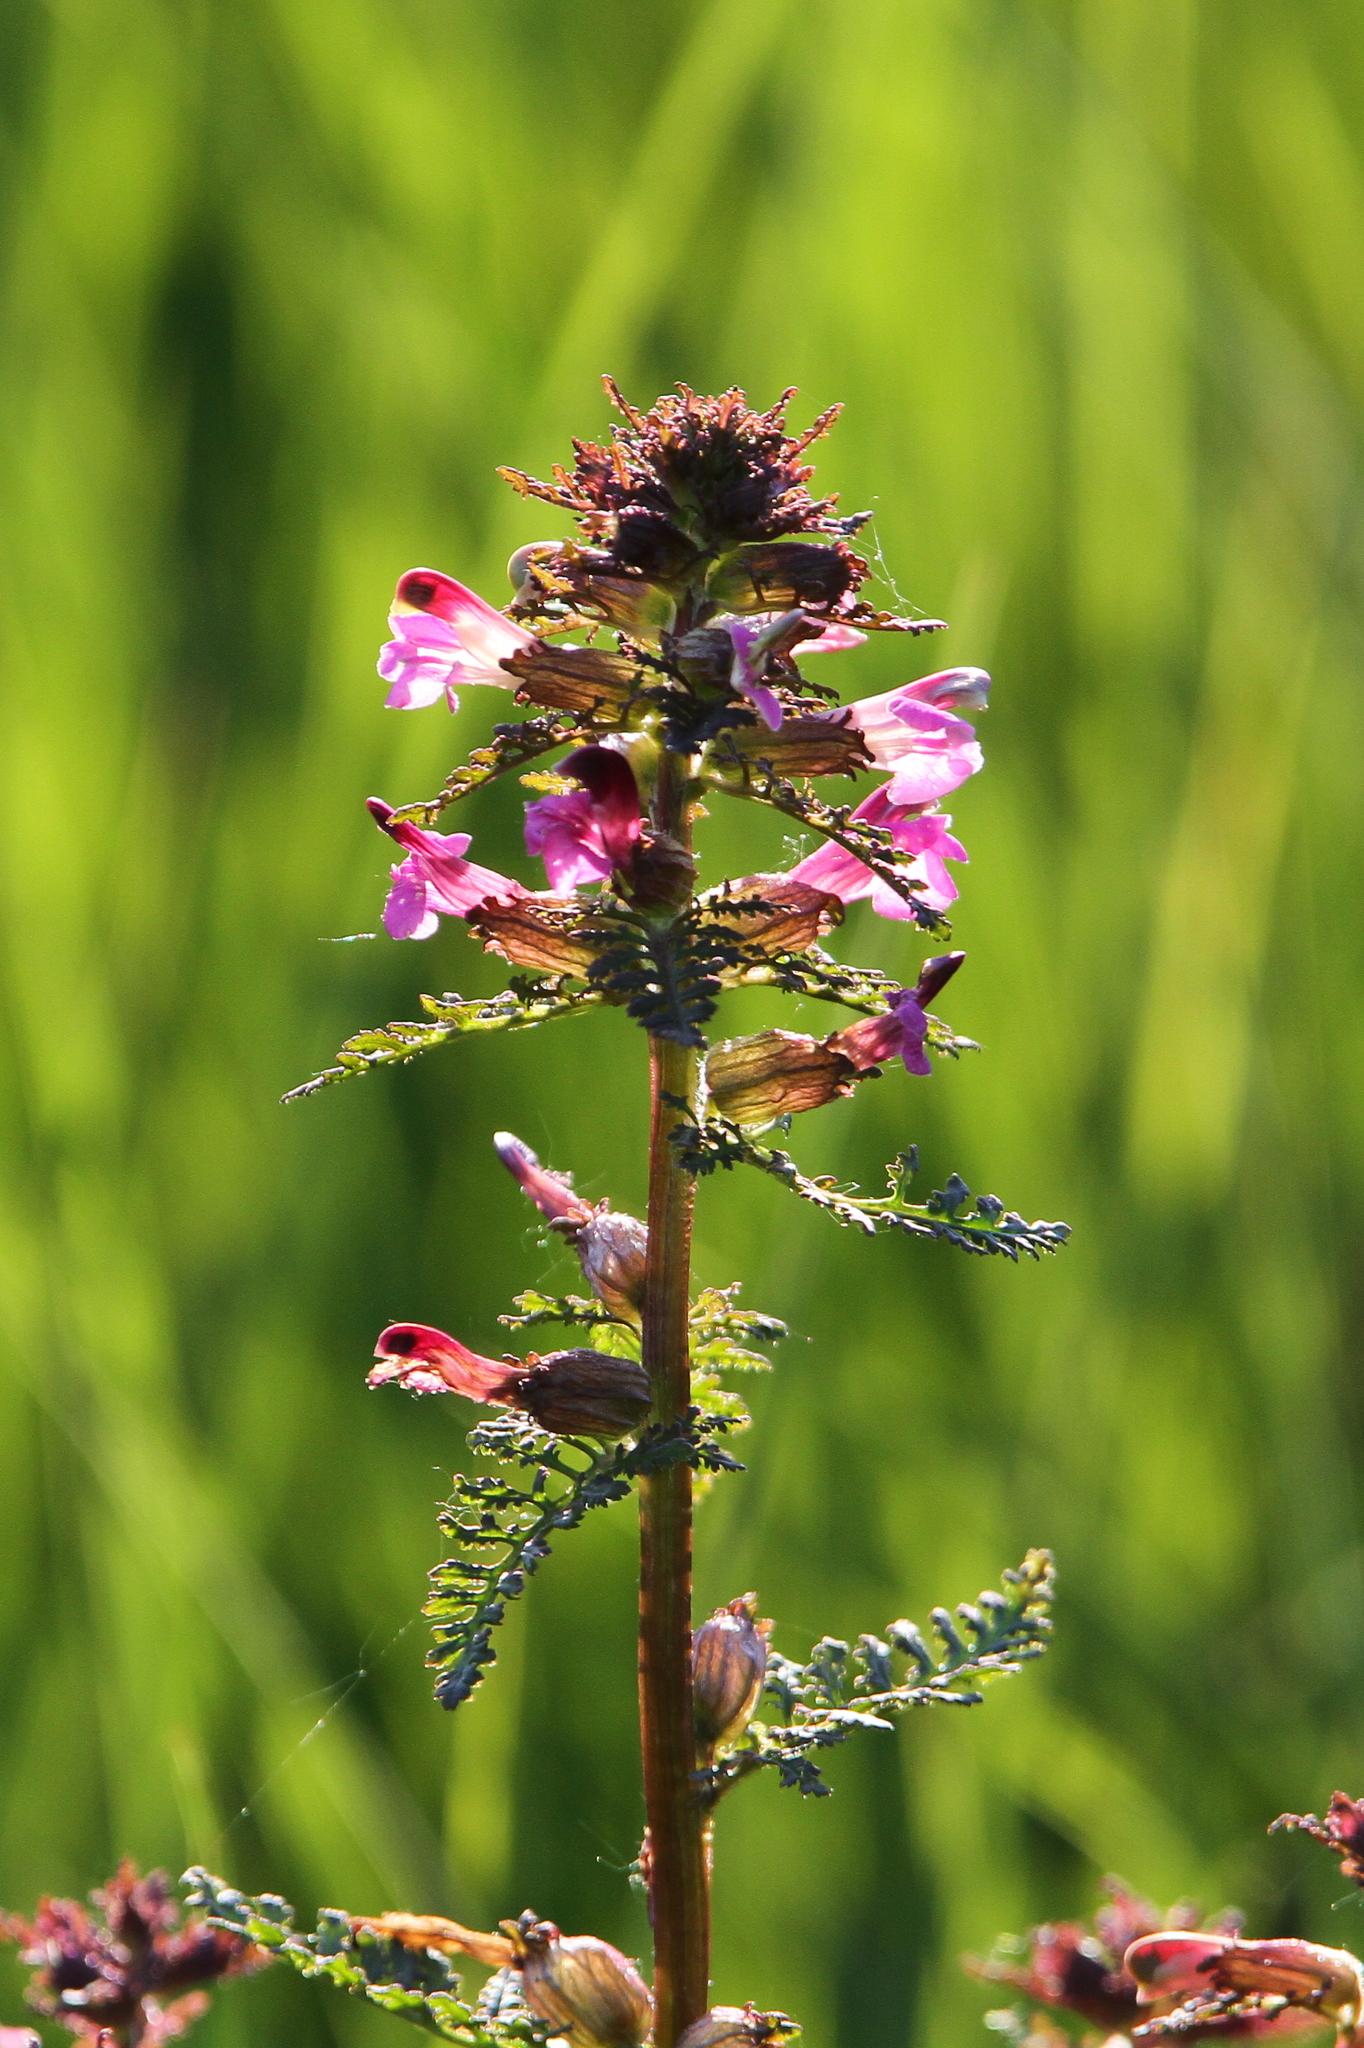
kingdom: Plantae
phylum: Tracheophyta
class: Magnoliopsida
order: Lamiales
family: Orobanchaceae
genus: Pedicularis
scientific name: Pedicularis palustris
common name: Marsh lousewort
